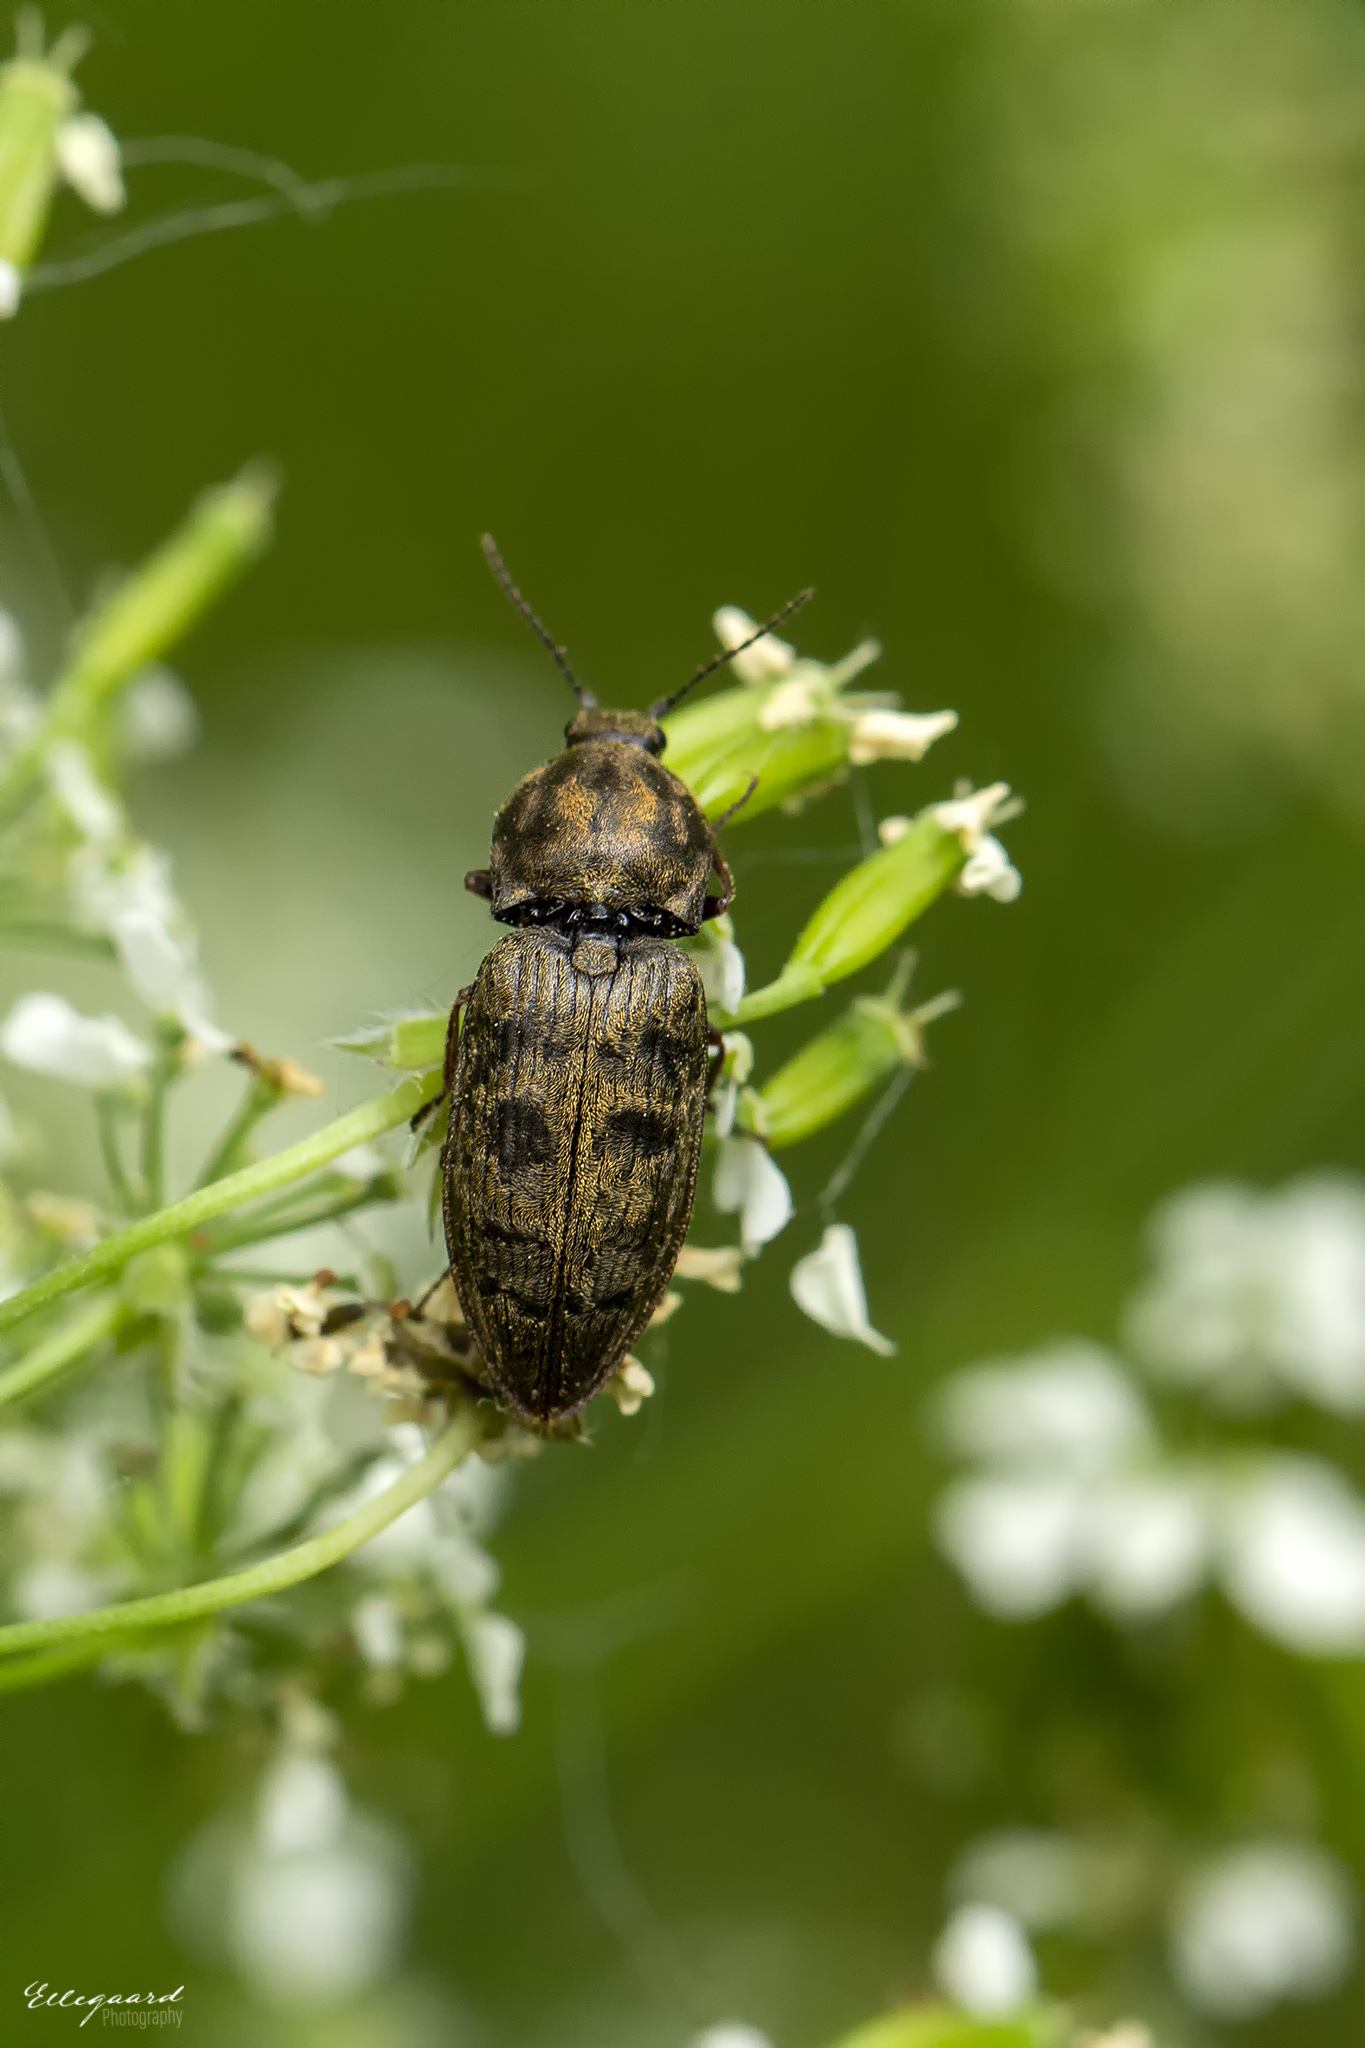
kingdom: Animalia
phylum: Arthropoda
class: Insecta
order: Coleoptera
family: Elateridae
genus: Prosternon
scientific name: Prosternon tessellatum
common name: Chequered click beetle
